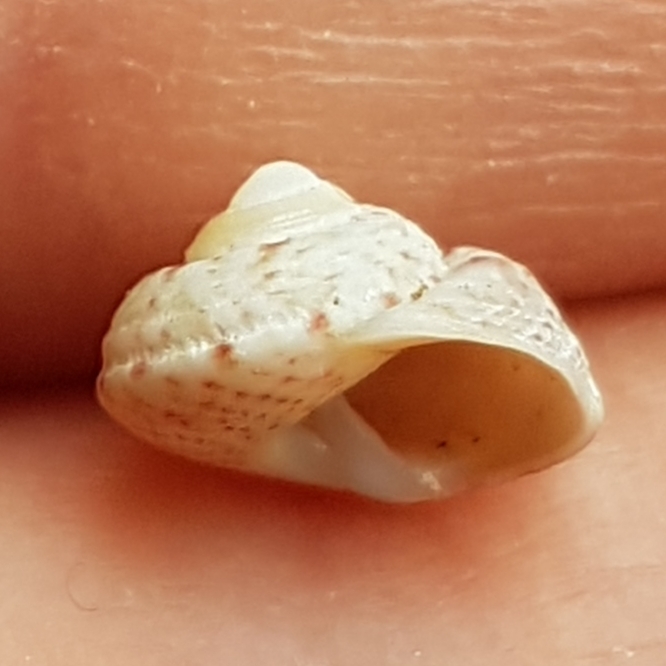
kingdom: Animalia
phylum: Mollusca
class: Gastropoda
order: Trochida
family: Trochidae
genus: Gibbula
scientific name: Gibbula magus
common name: Turban top shell
